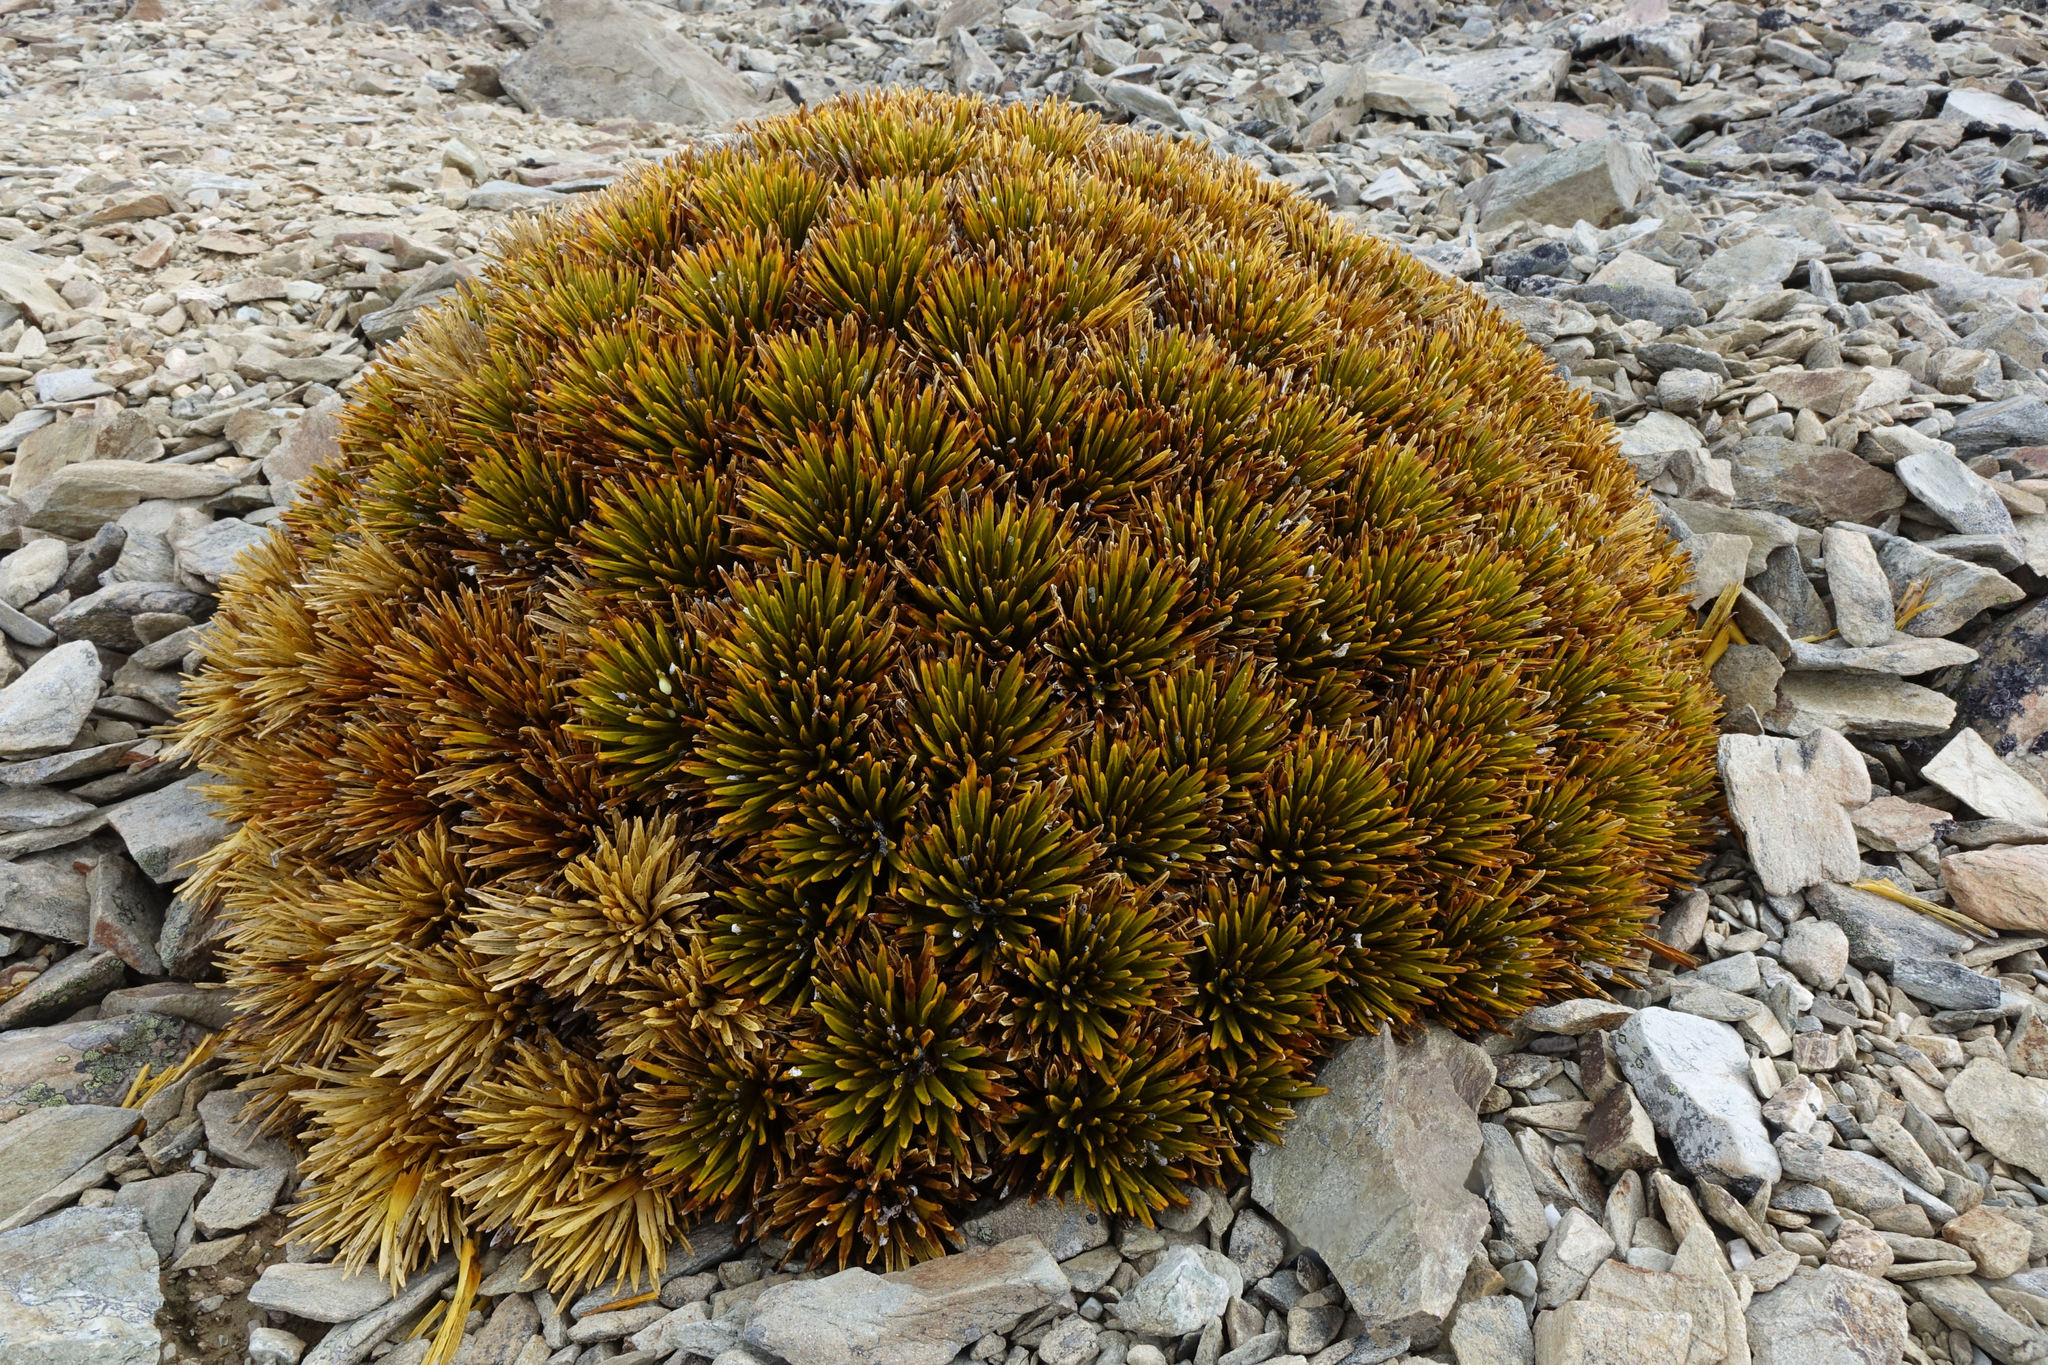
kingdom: Plantae
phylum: Tracheophyta
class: Magnoliopsida
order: Apiales
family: Apiaceae
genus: Aciphylla
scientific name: Aciphylla dobsonii
